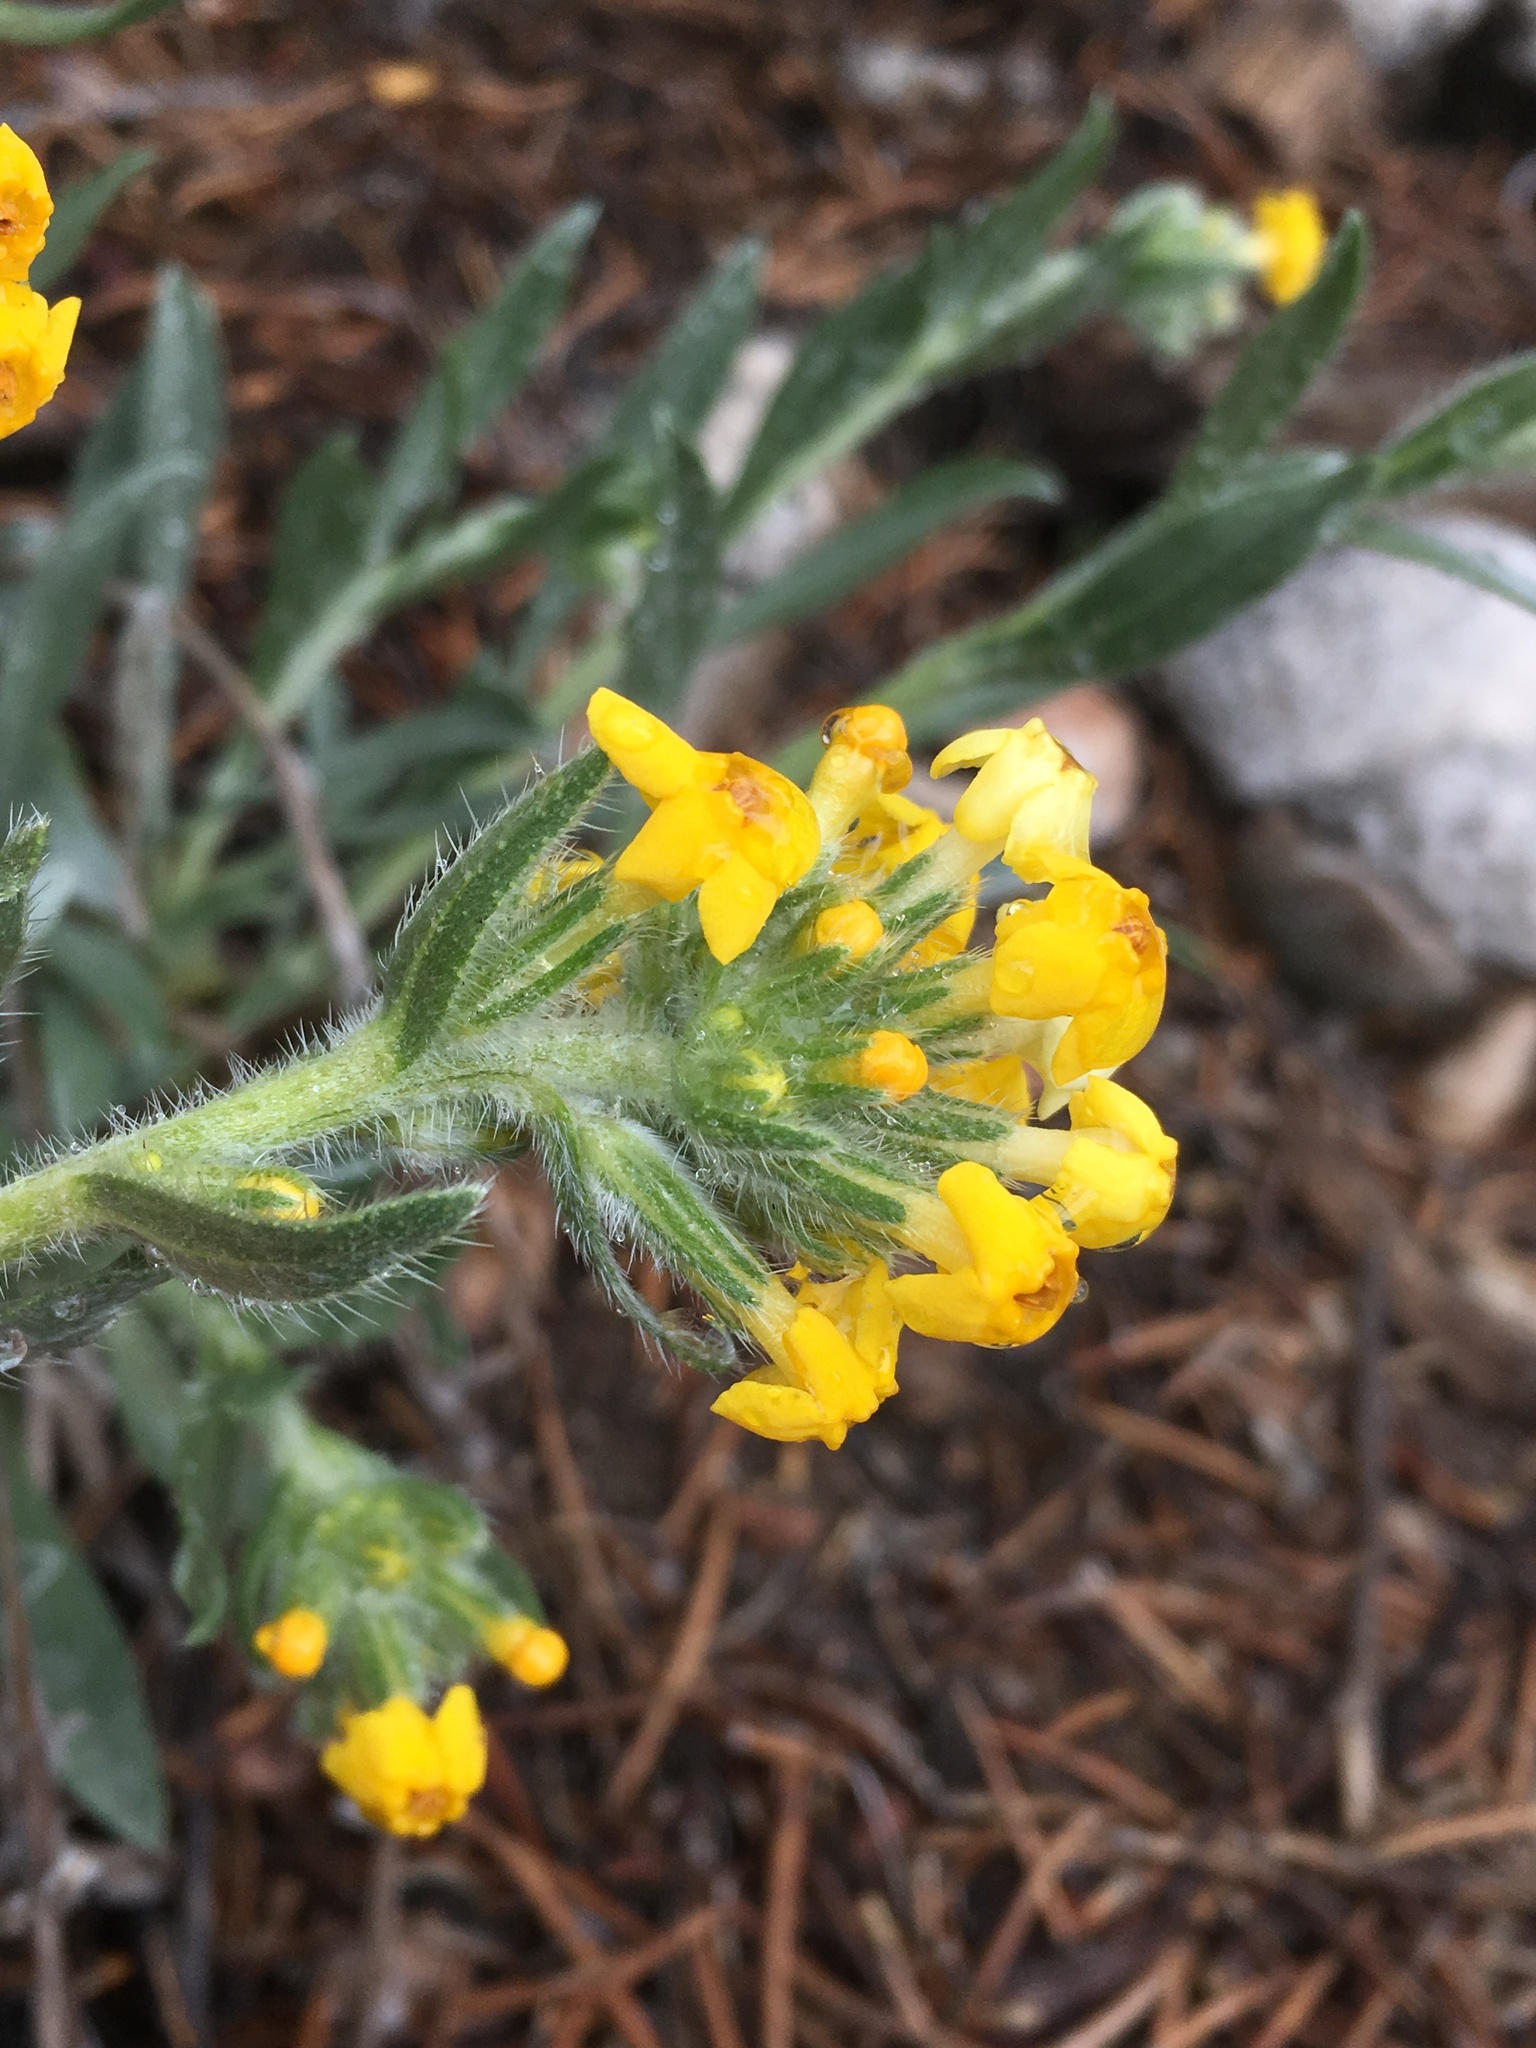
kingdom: Plantae
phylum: Tracheophyta
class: Magnoliopsida
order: Boraginales
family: Boraginaceae
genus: Oreocarya
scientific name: Oreocarya confertiflora
